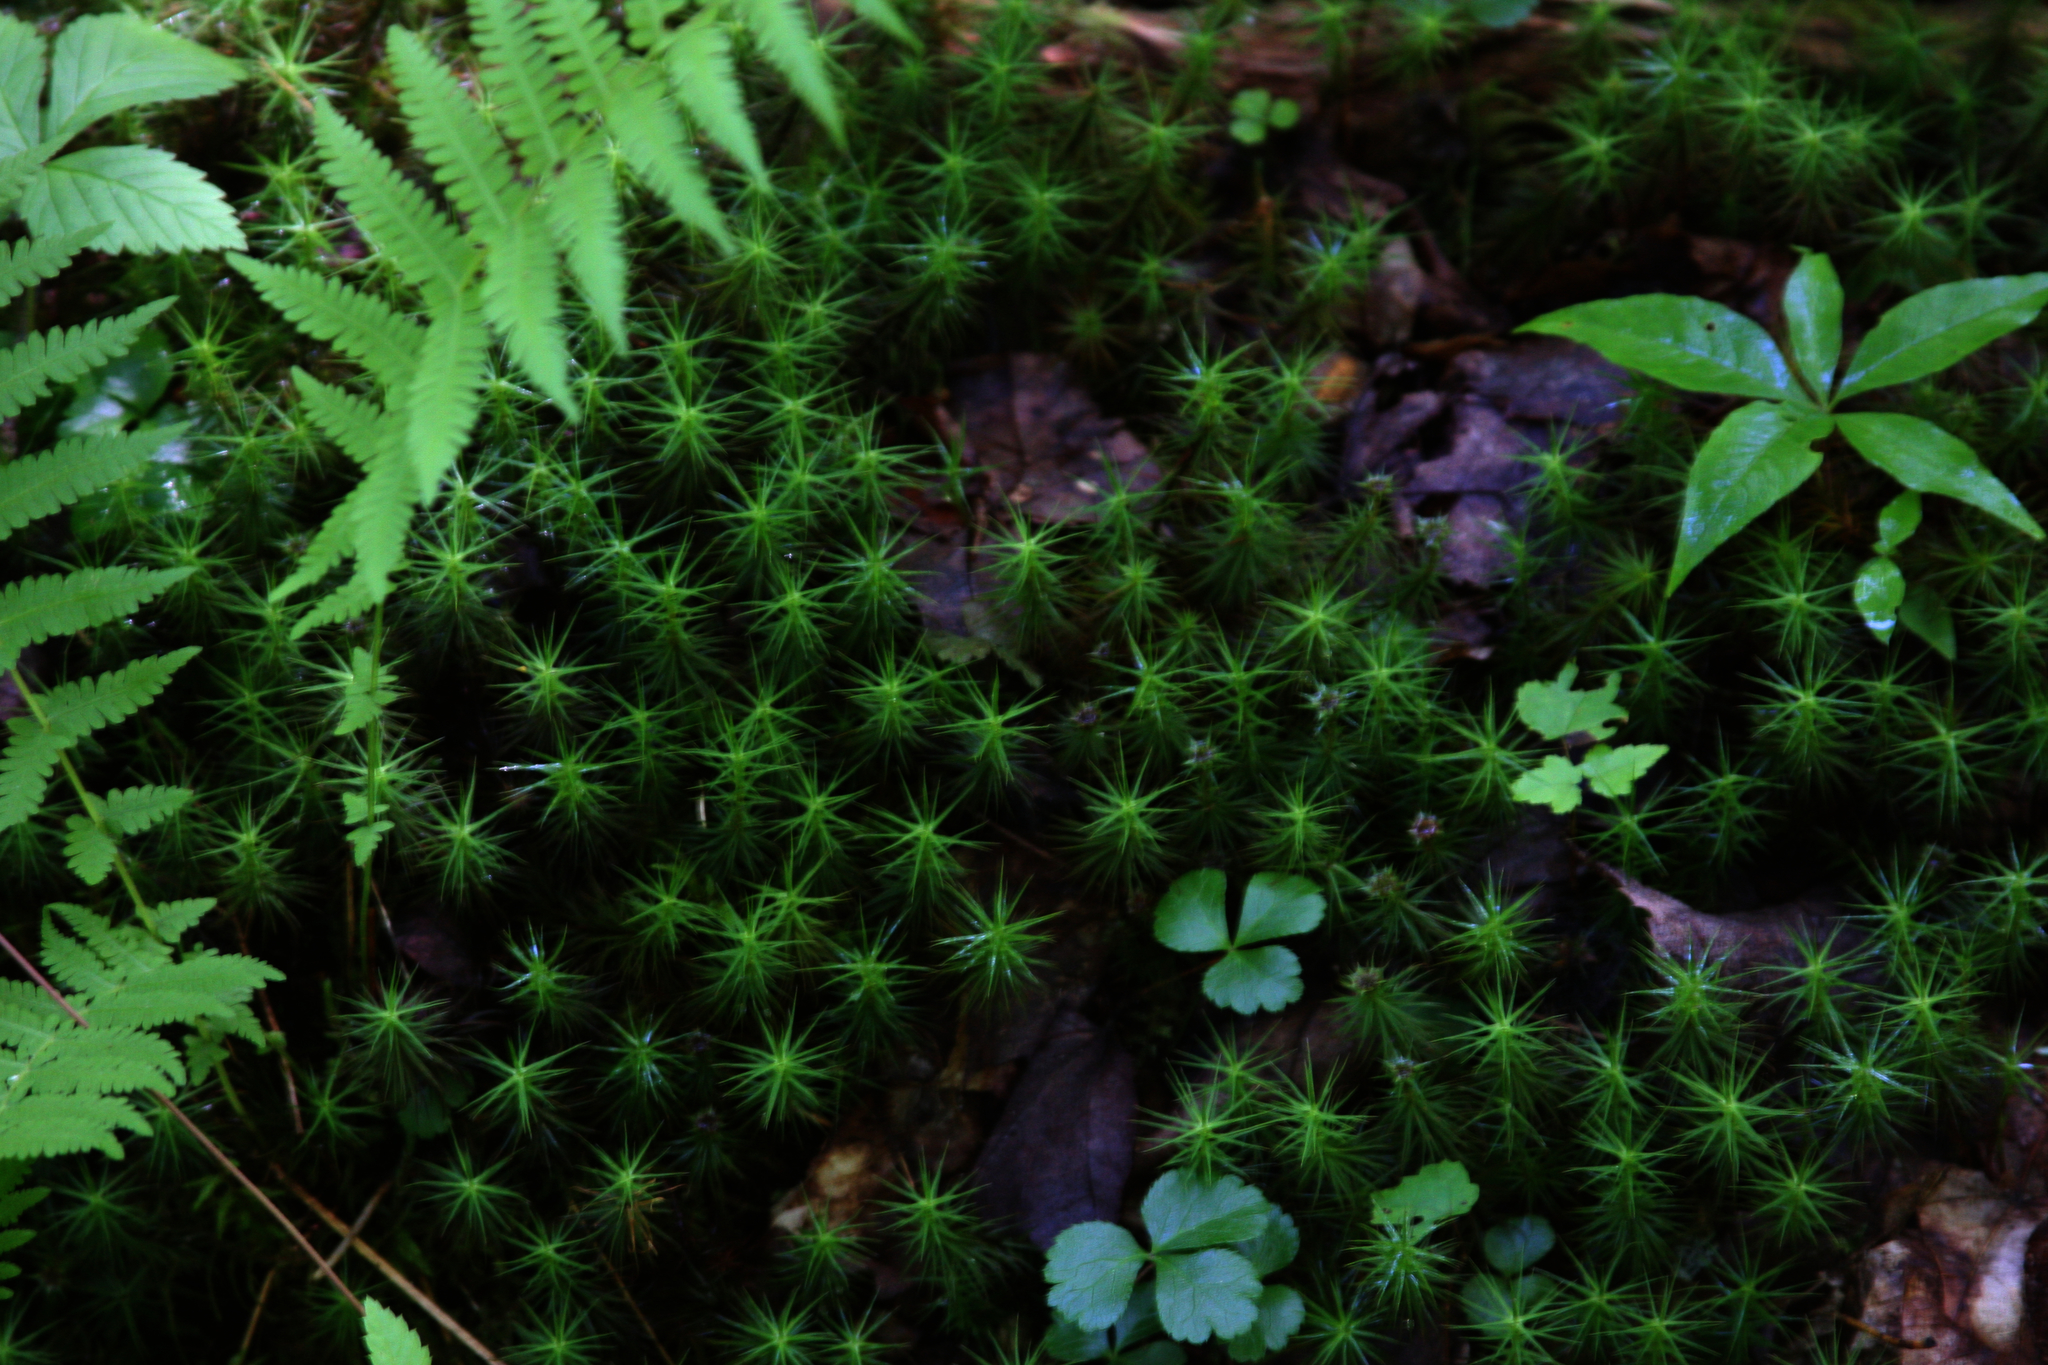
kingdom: Plantae
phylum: Tracheophyta
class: Magnoliopsida
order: Ericales
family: Primulaceae
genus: Lysimachia
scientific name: Lysimachia borealis
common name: American starflower
